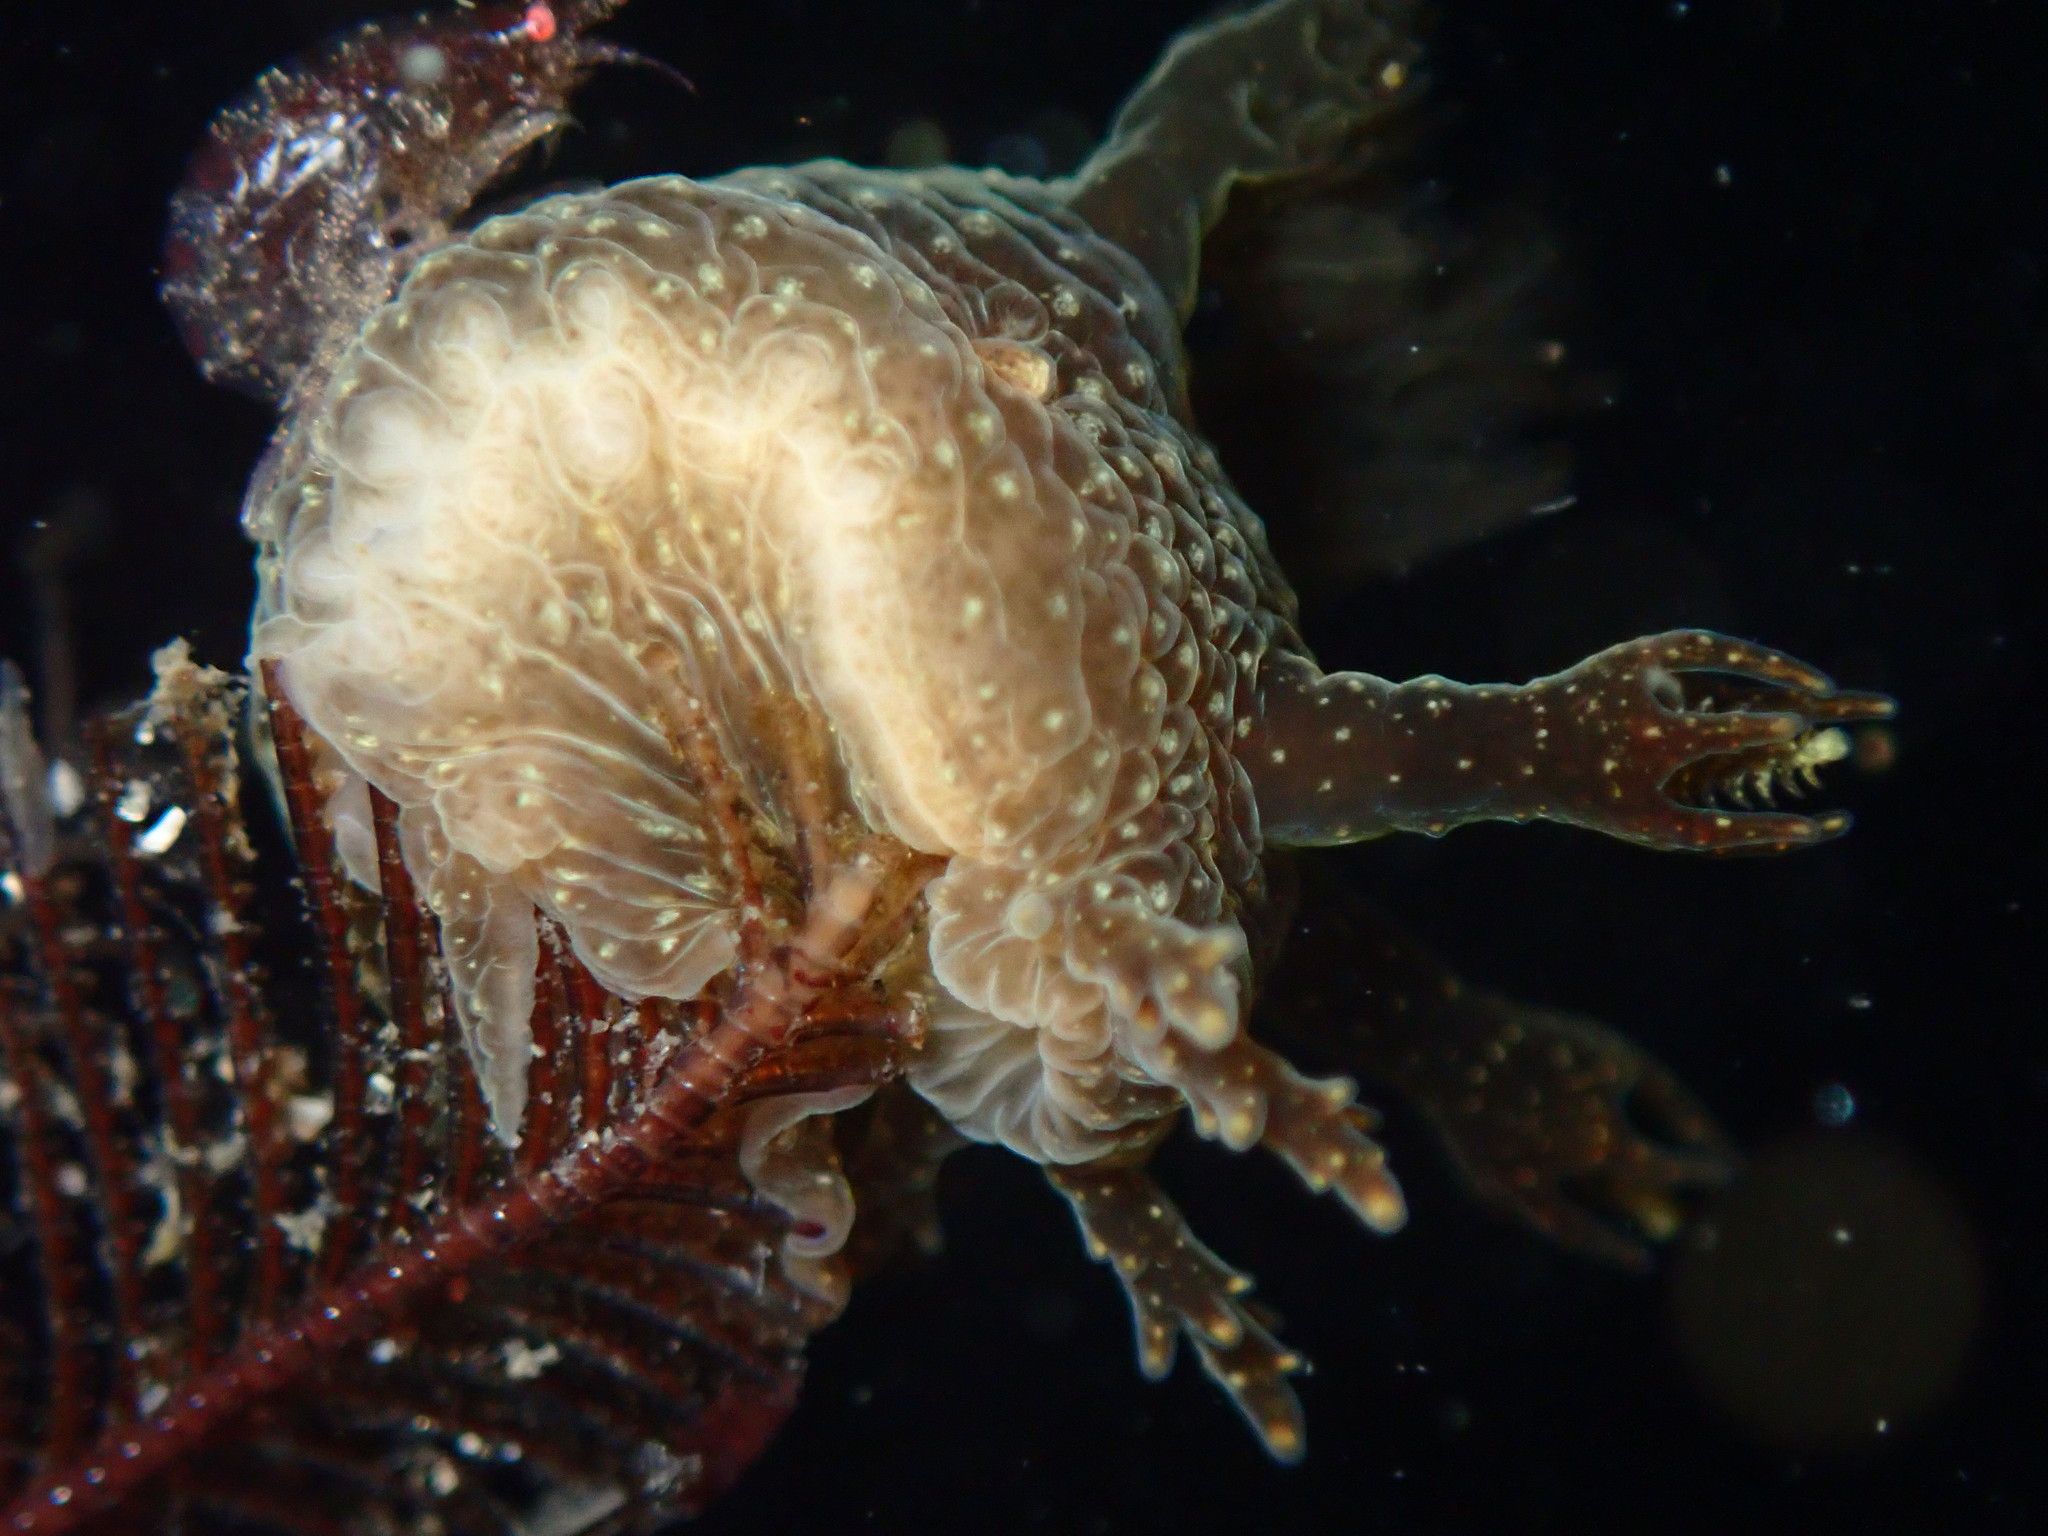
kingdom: Animalia
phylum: Mollusca
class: Gastropoda
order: Nudibranchia
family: Dendronotidae
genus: Dendronotus
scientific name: Dendronotus subramosus
